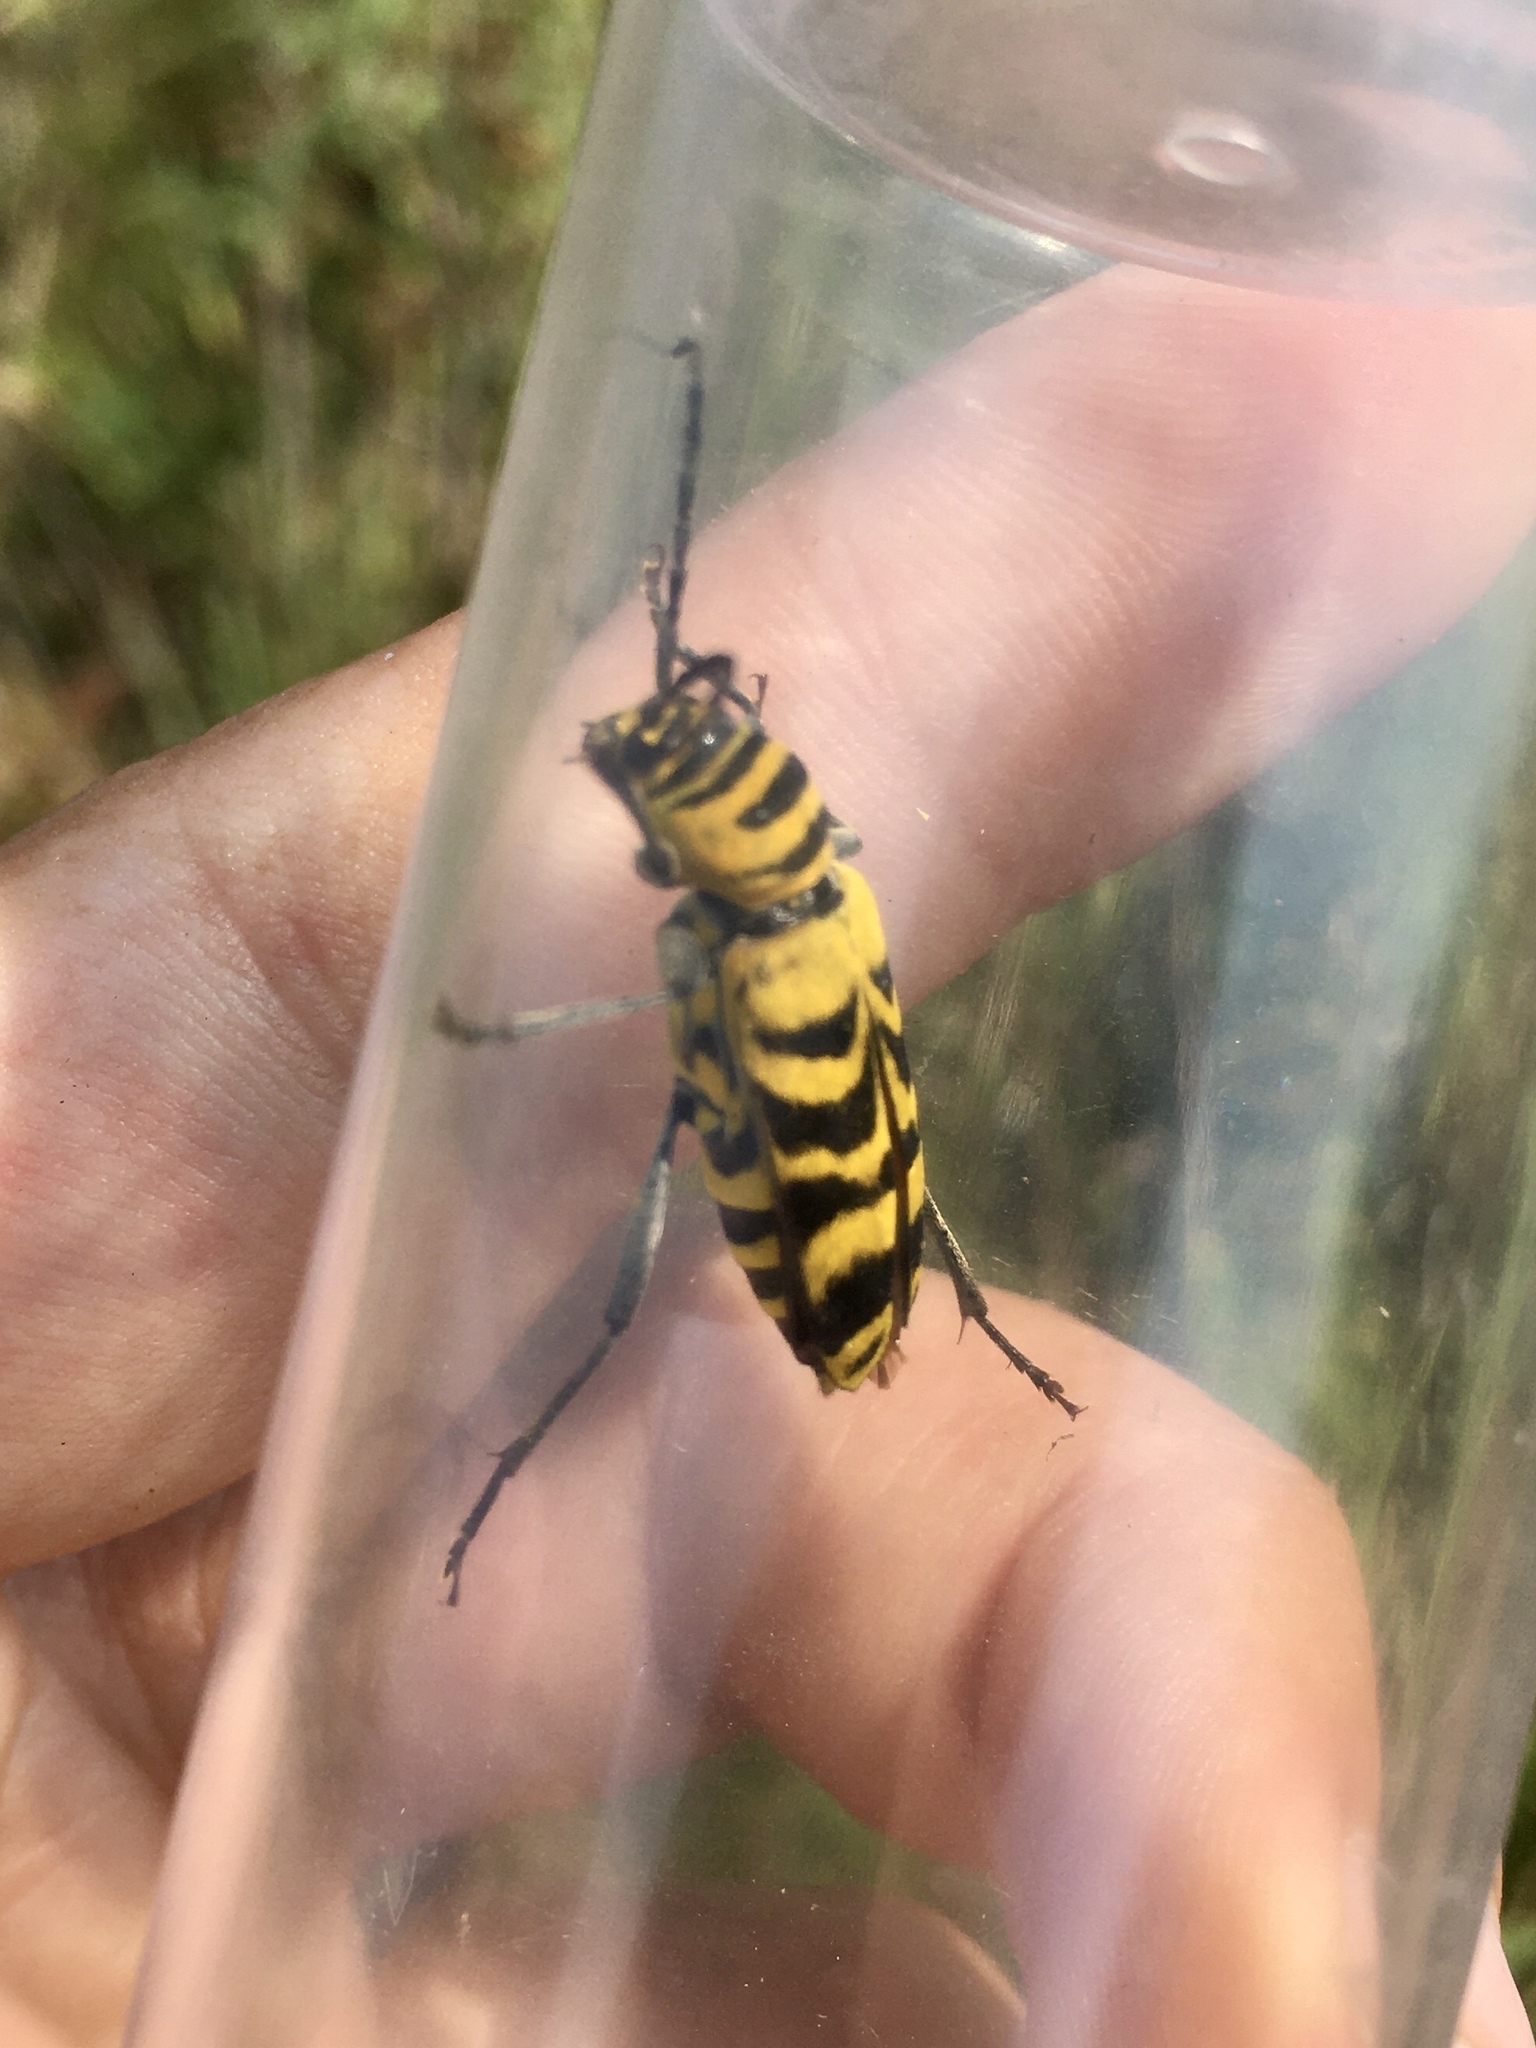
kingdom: Animalia
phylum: Arthropoda
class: Insecta
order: Coleoptera
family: Cerambycidae
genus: Megacyllene
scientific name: Megacyllene decora
